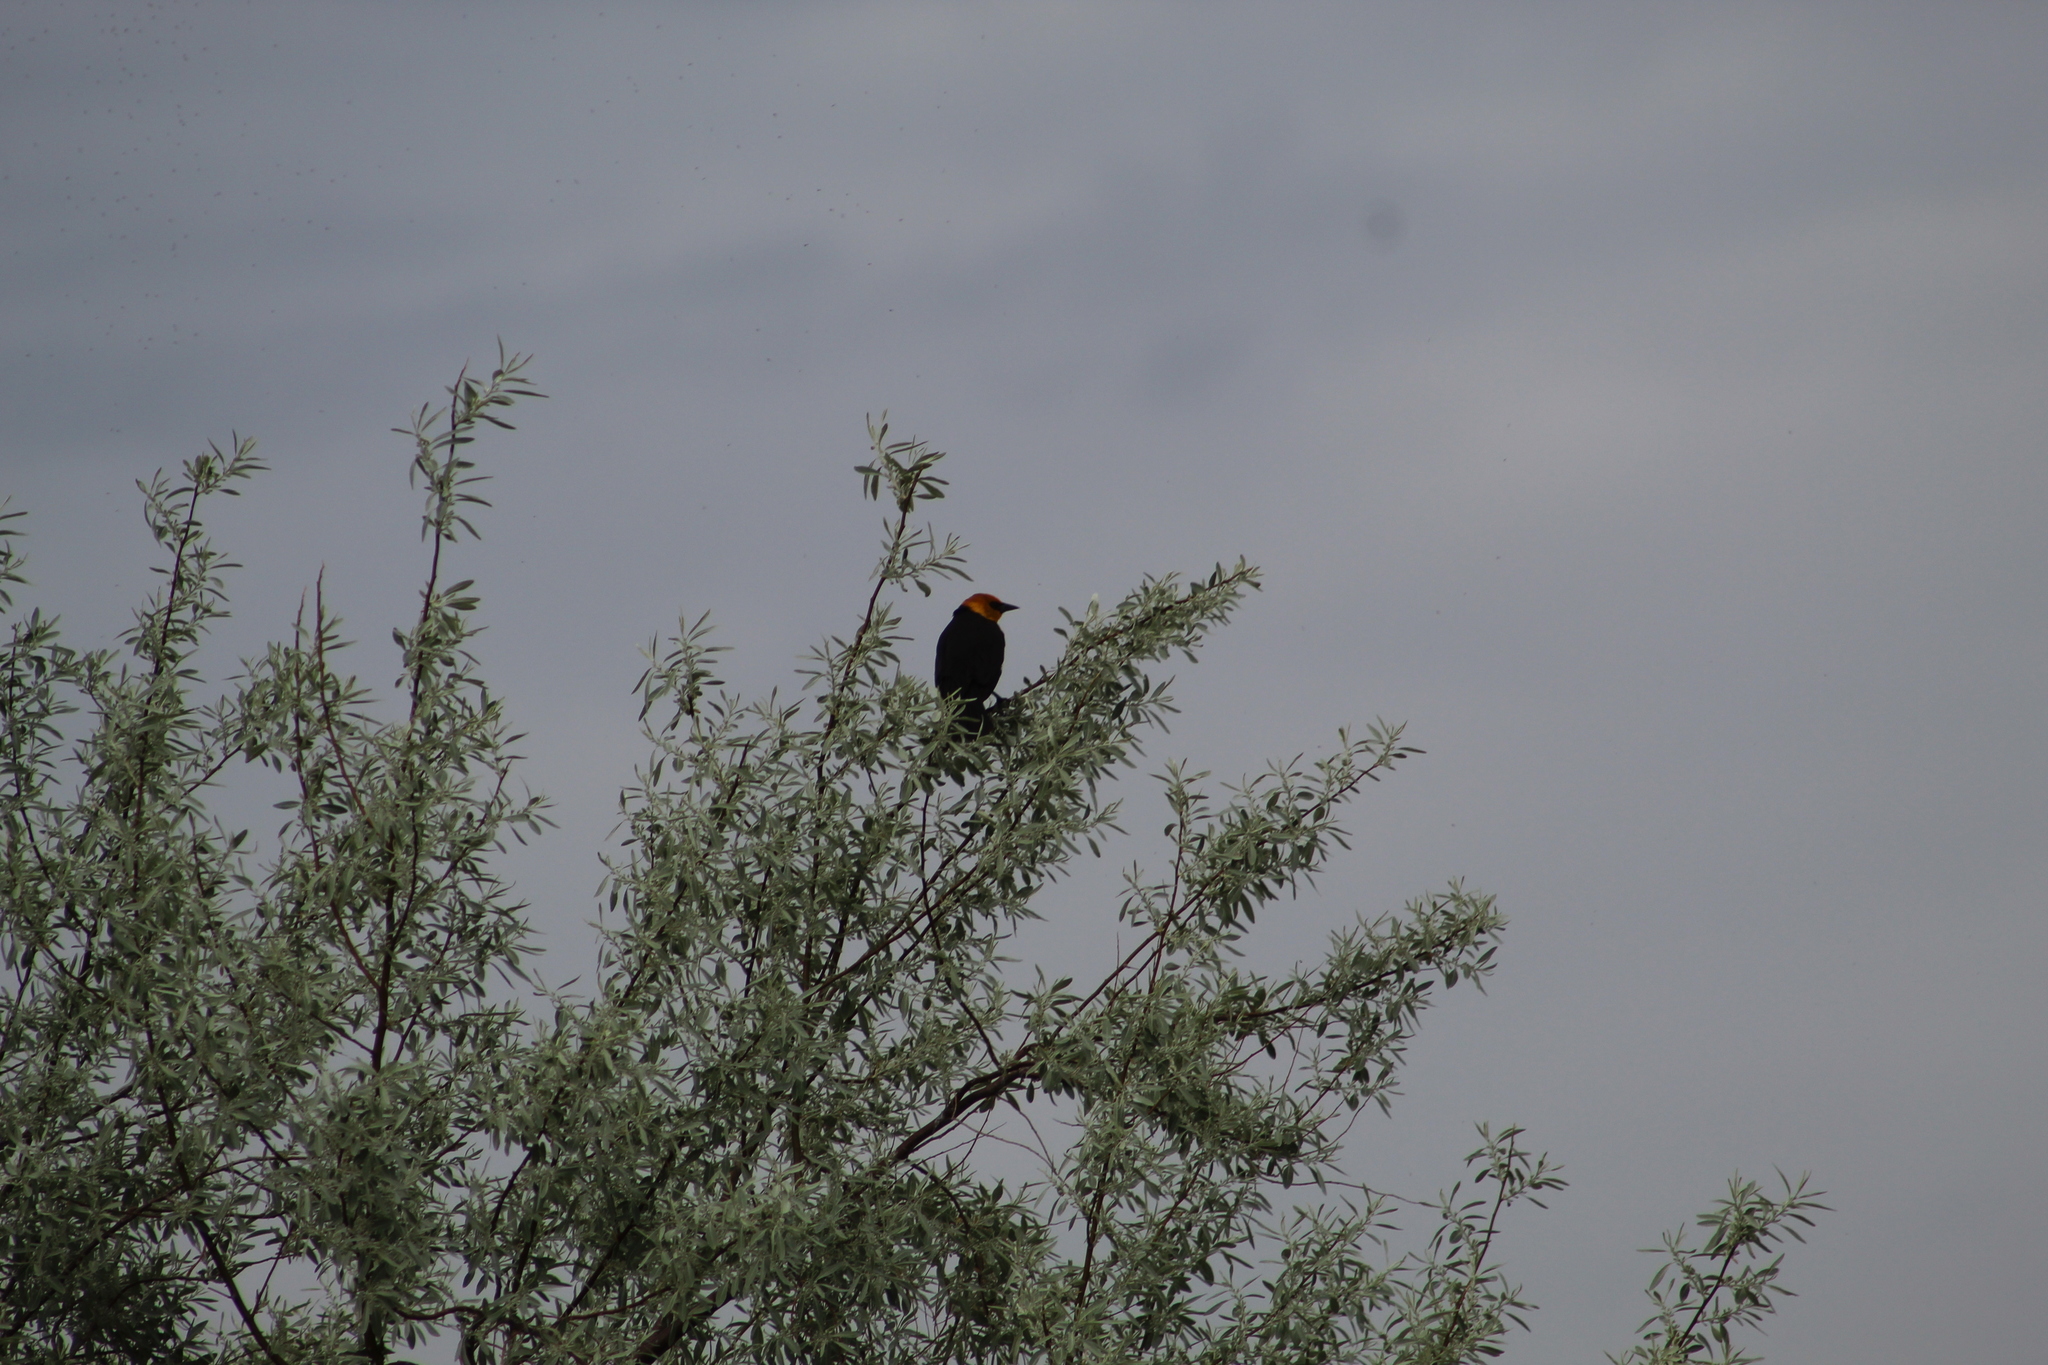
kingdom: Animalia
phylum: Chordata
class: Aves
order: Passeriformes
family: Icteridae
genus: Xanthocephalus
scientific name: Xanthocephalus xanthocephalus
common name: Yellow-headed blackbird
